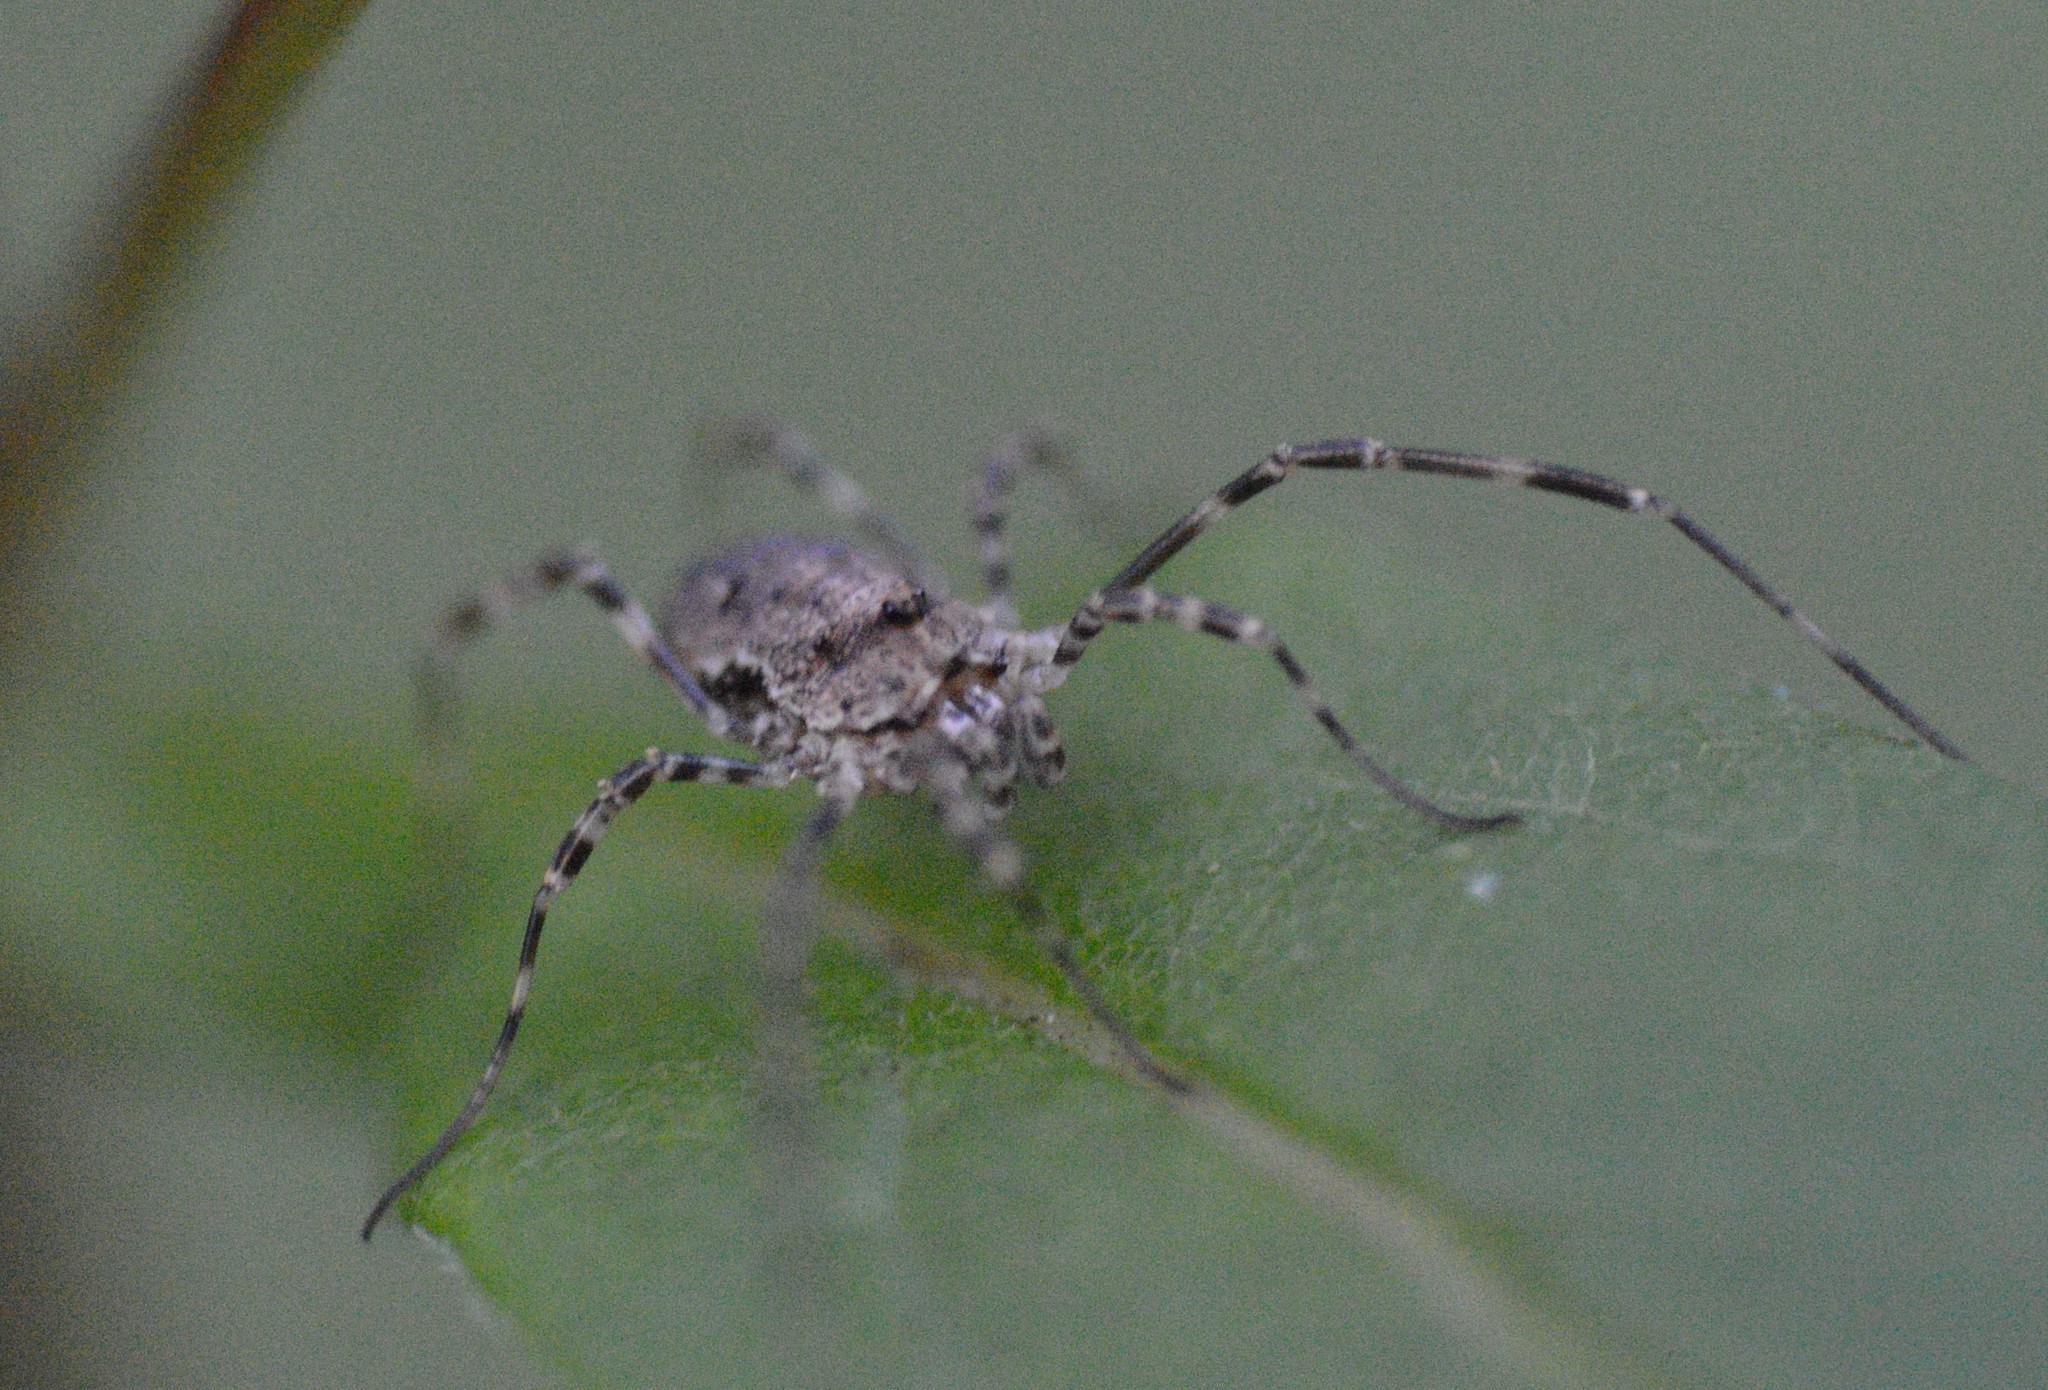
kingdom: Animalia
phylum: Arthropoda
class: Arachnida
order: Opiliones
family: Phalangiidae
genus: Odiellus
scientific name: Odiellus pictus
